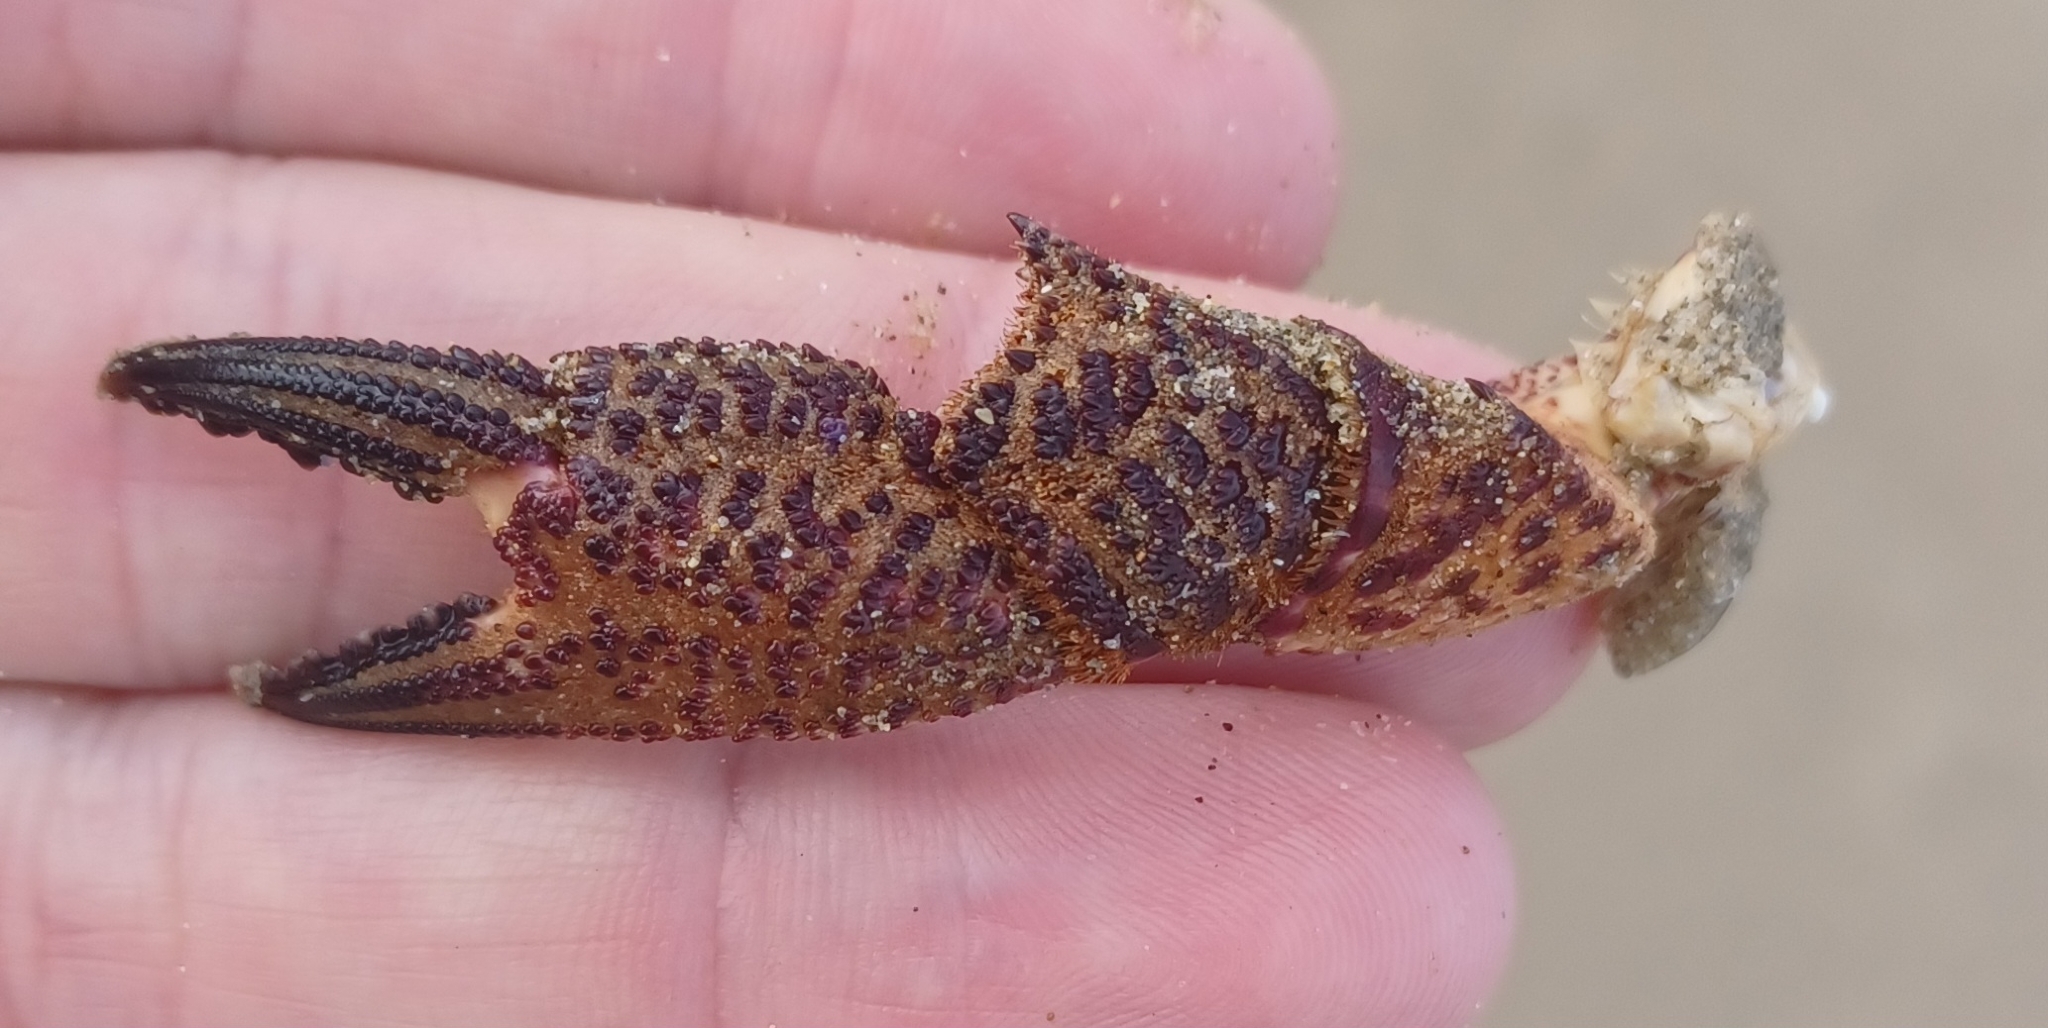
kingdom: Animalia
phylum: Arthropoda
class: Malacostraca
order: Decapoda
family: Geryonidae
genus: Nectocarcinus
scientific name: Nectocarcinus tuberculosus
